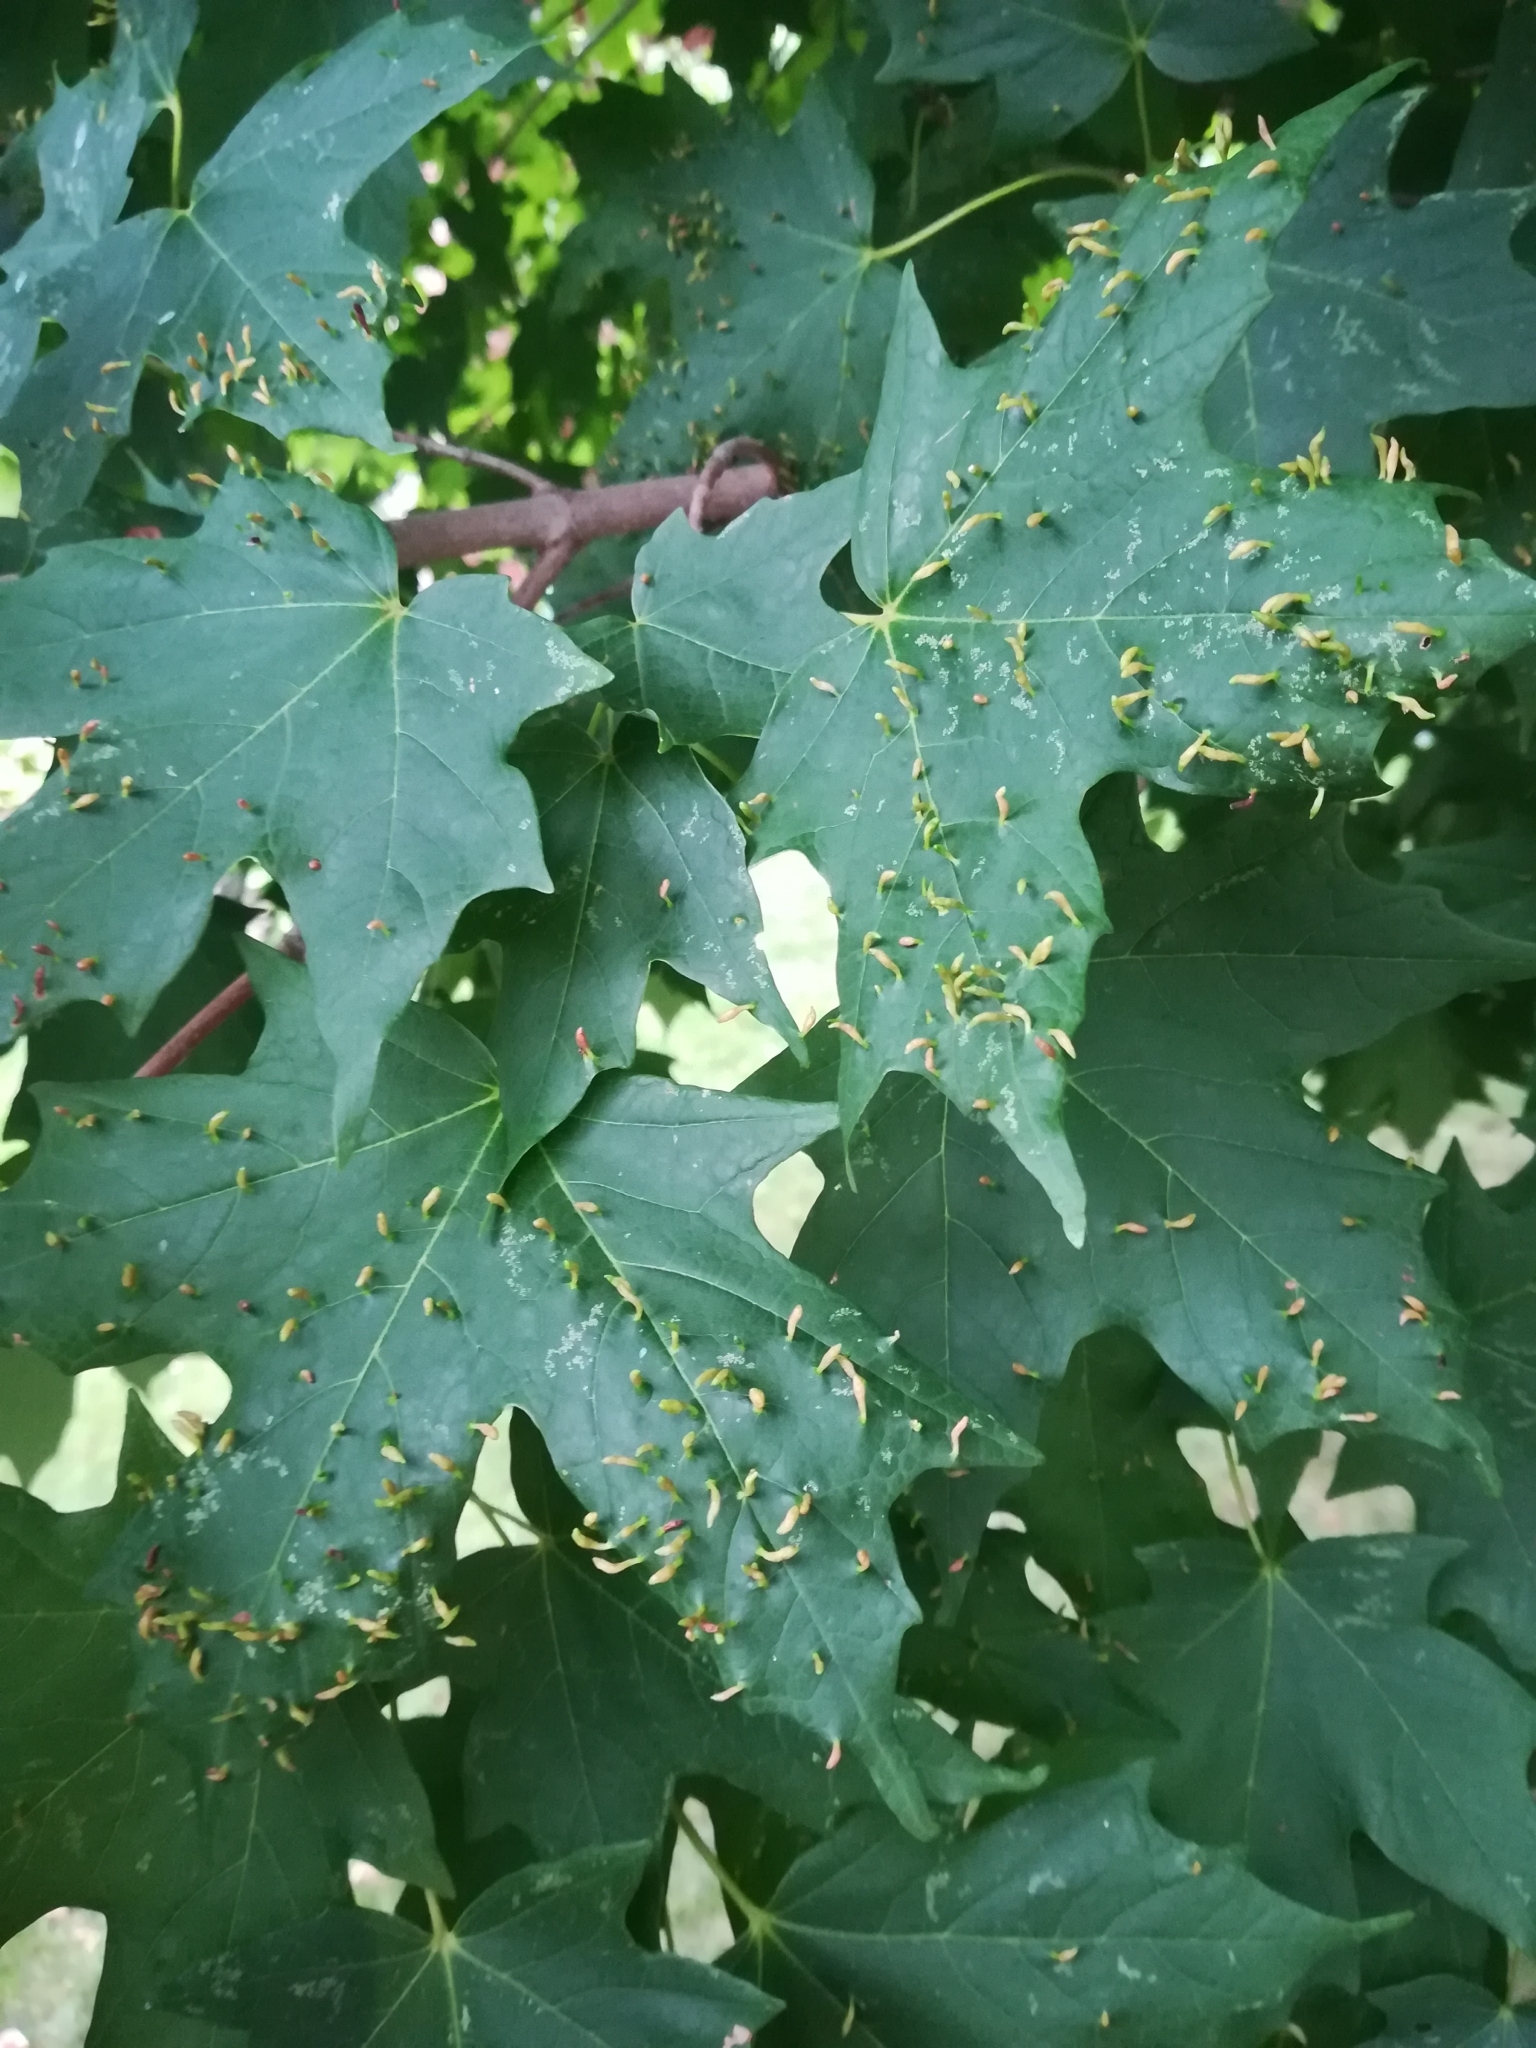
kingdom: Animalia
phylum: Arthropoda
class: Arachnida
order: Trombidiformes
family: Eriophyidae
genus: Vasates
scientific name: Vasates aceriscrumena
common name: Maple spindle gall mite
